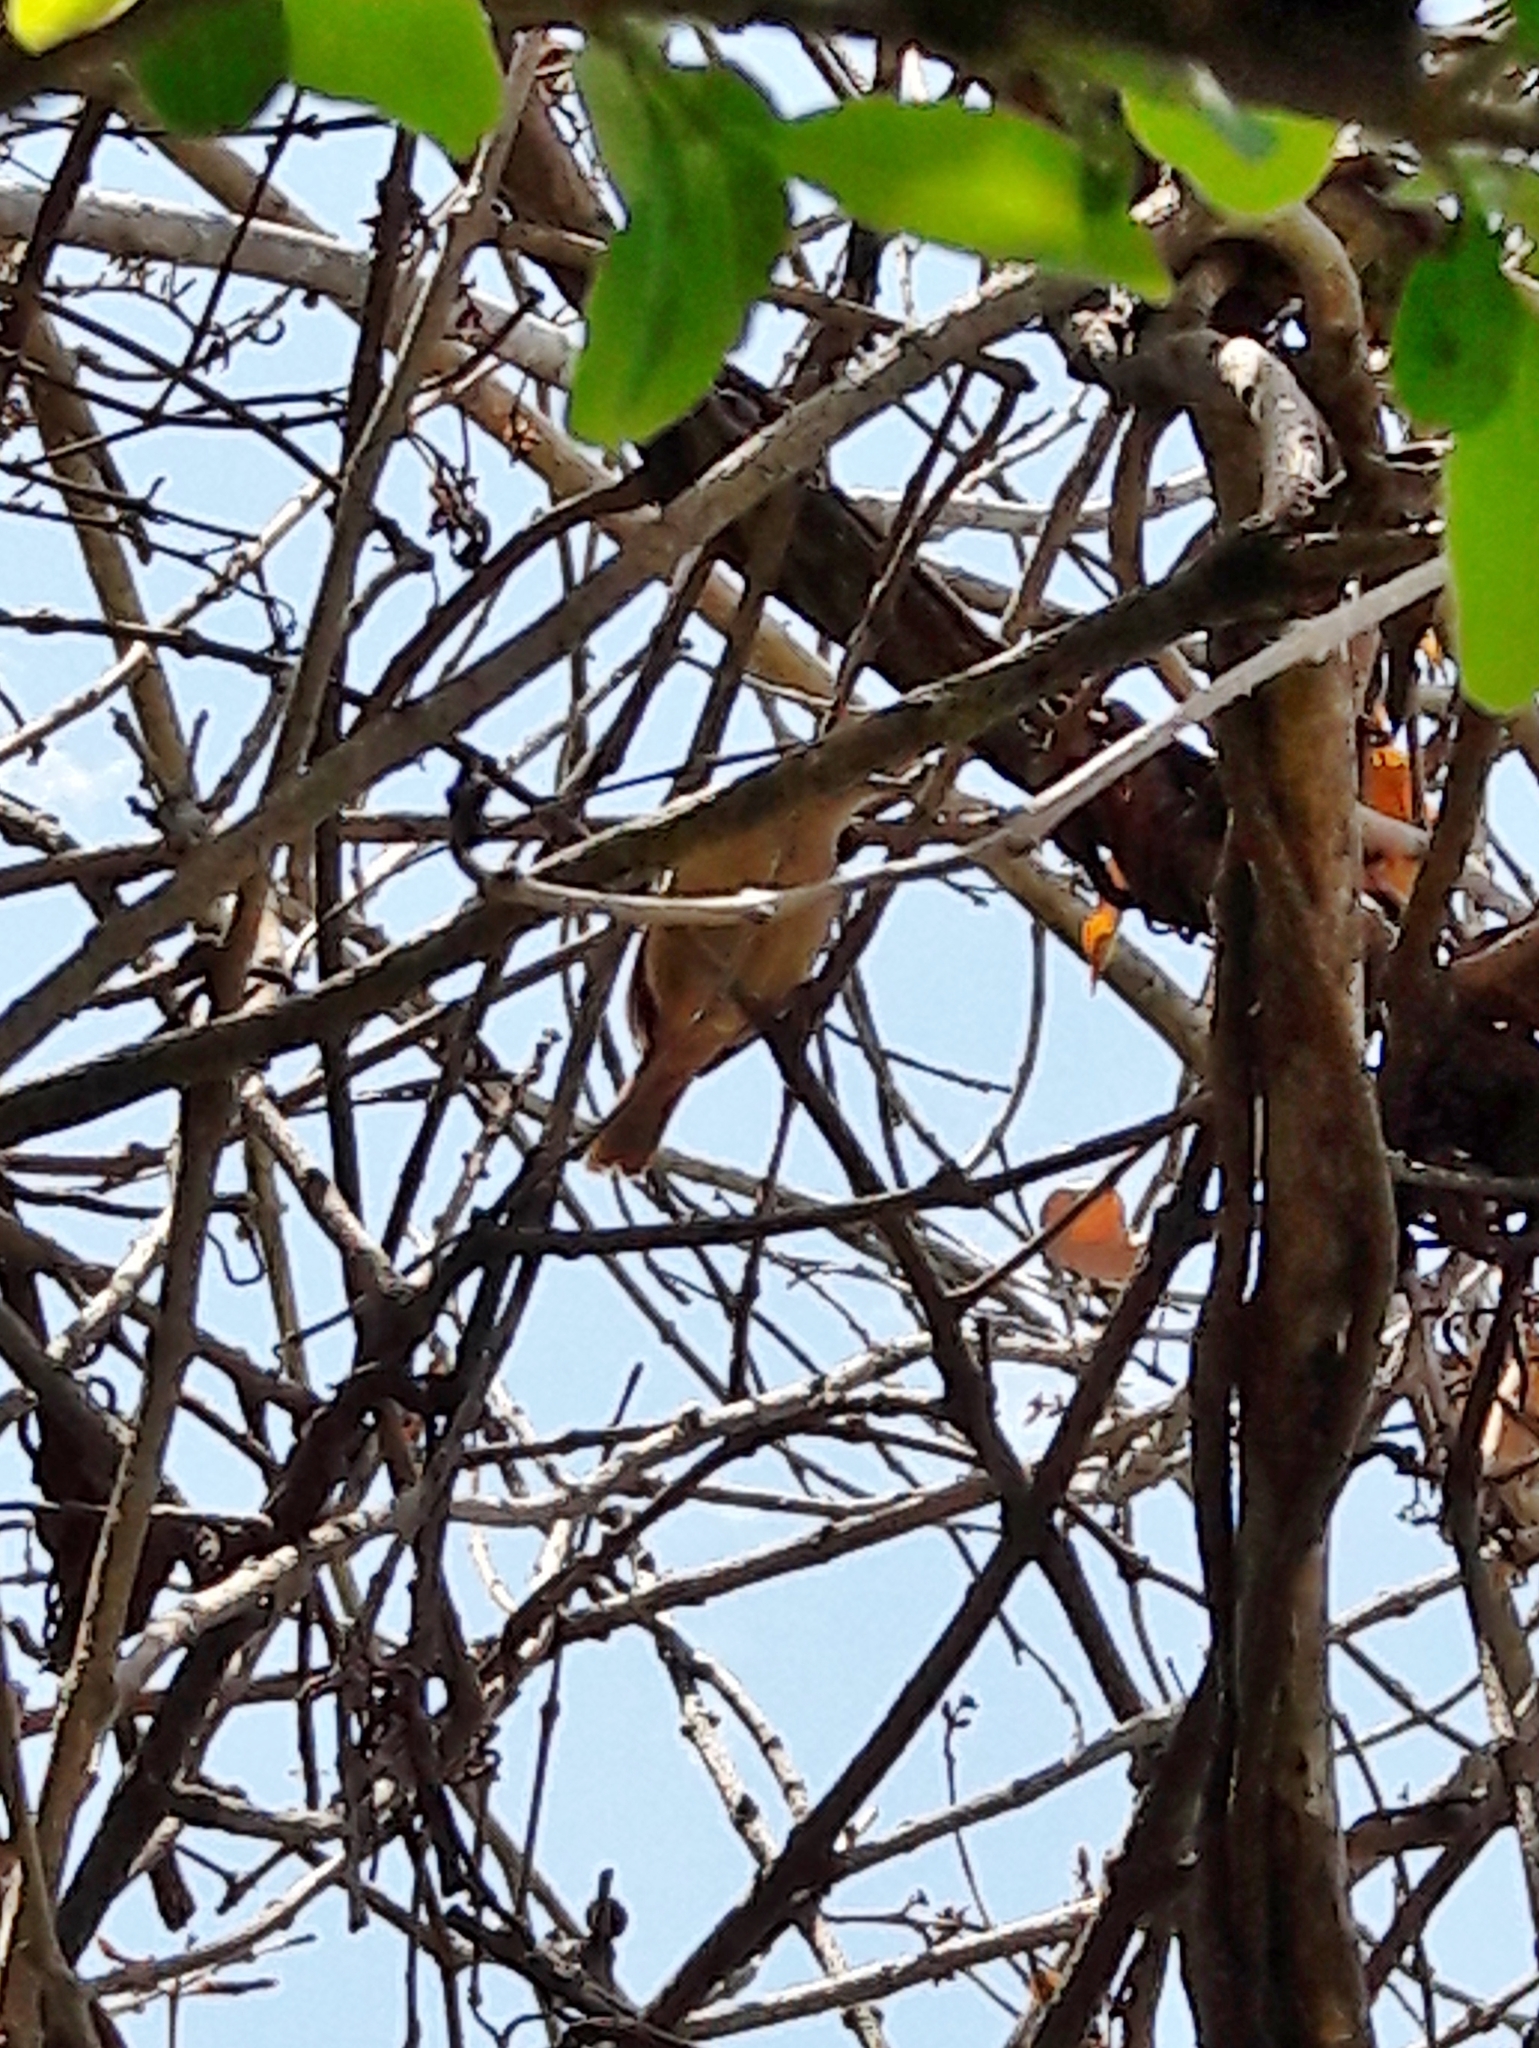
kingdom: Animalia
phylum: Chordata
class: Aves
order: Passeriformes
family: Troglodytidae
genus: Troglodytes
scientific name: Troglodytes aedon
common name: House wren
